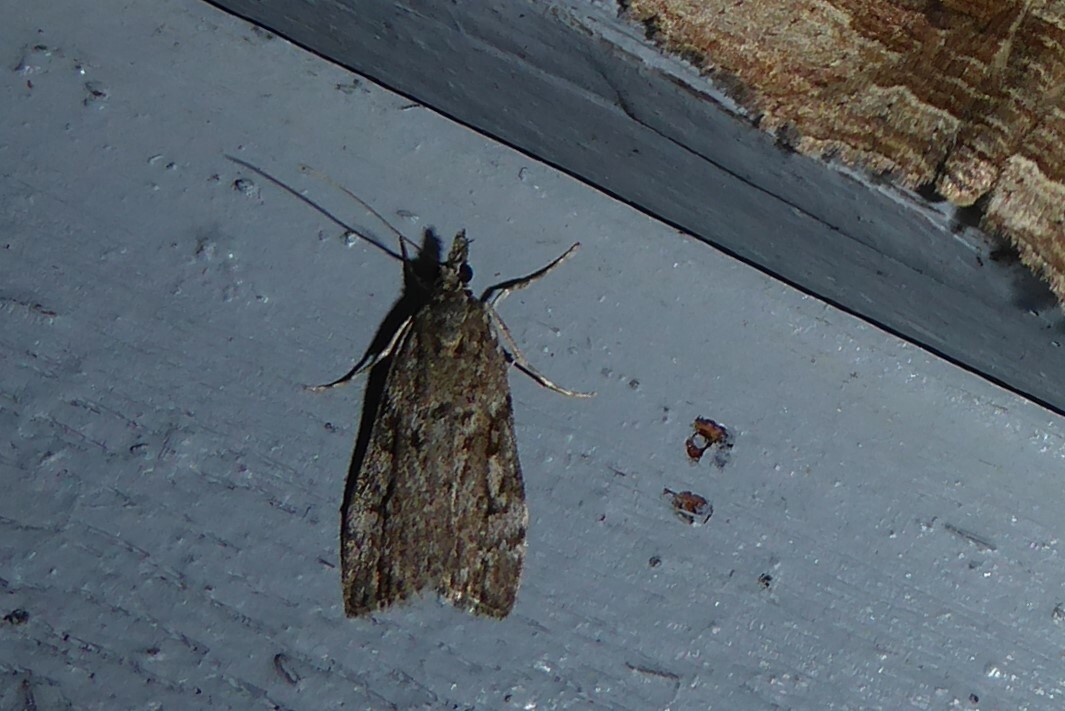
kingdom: Animalia
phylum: Arthropoda
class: Insecta
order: Lepidoptera
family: Crambidae
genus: Eudonia
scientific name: Eudonia cymatias
